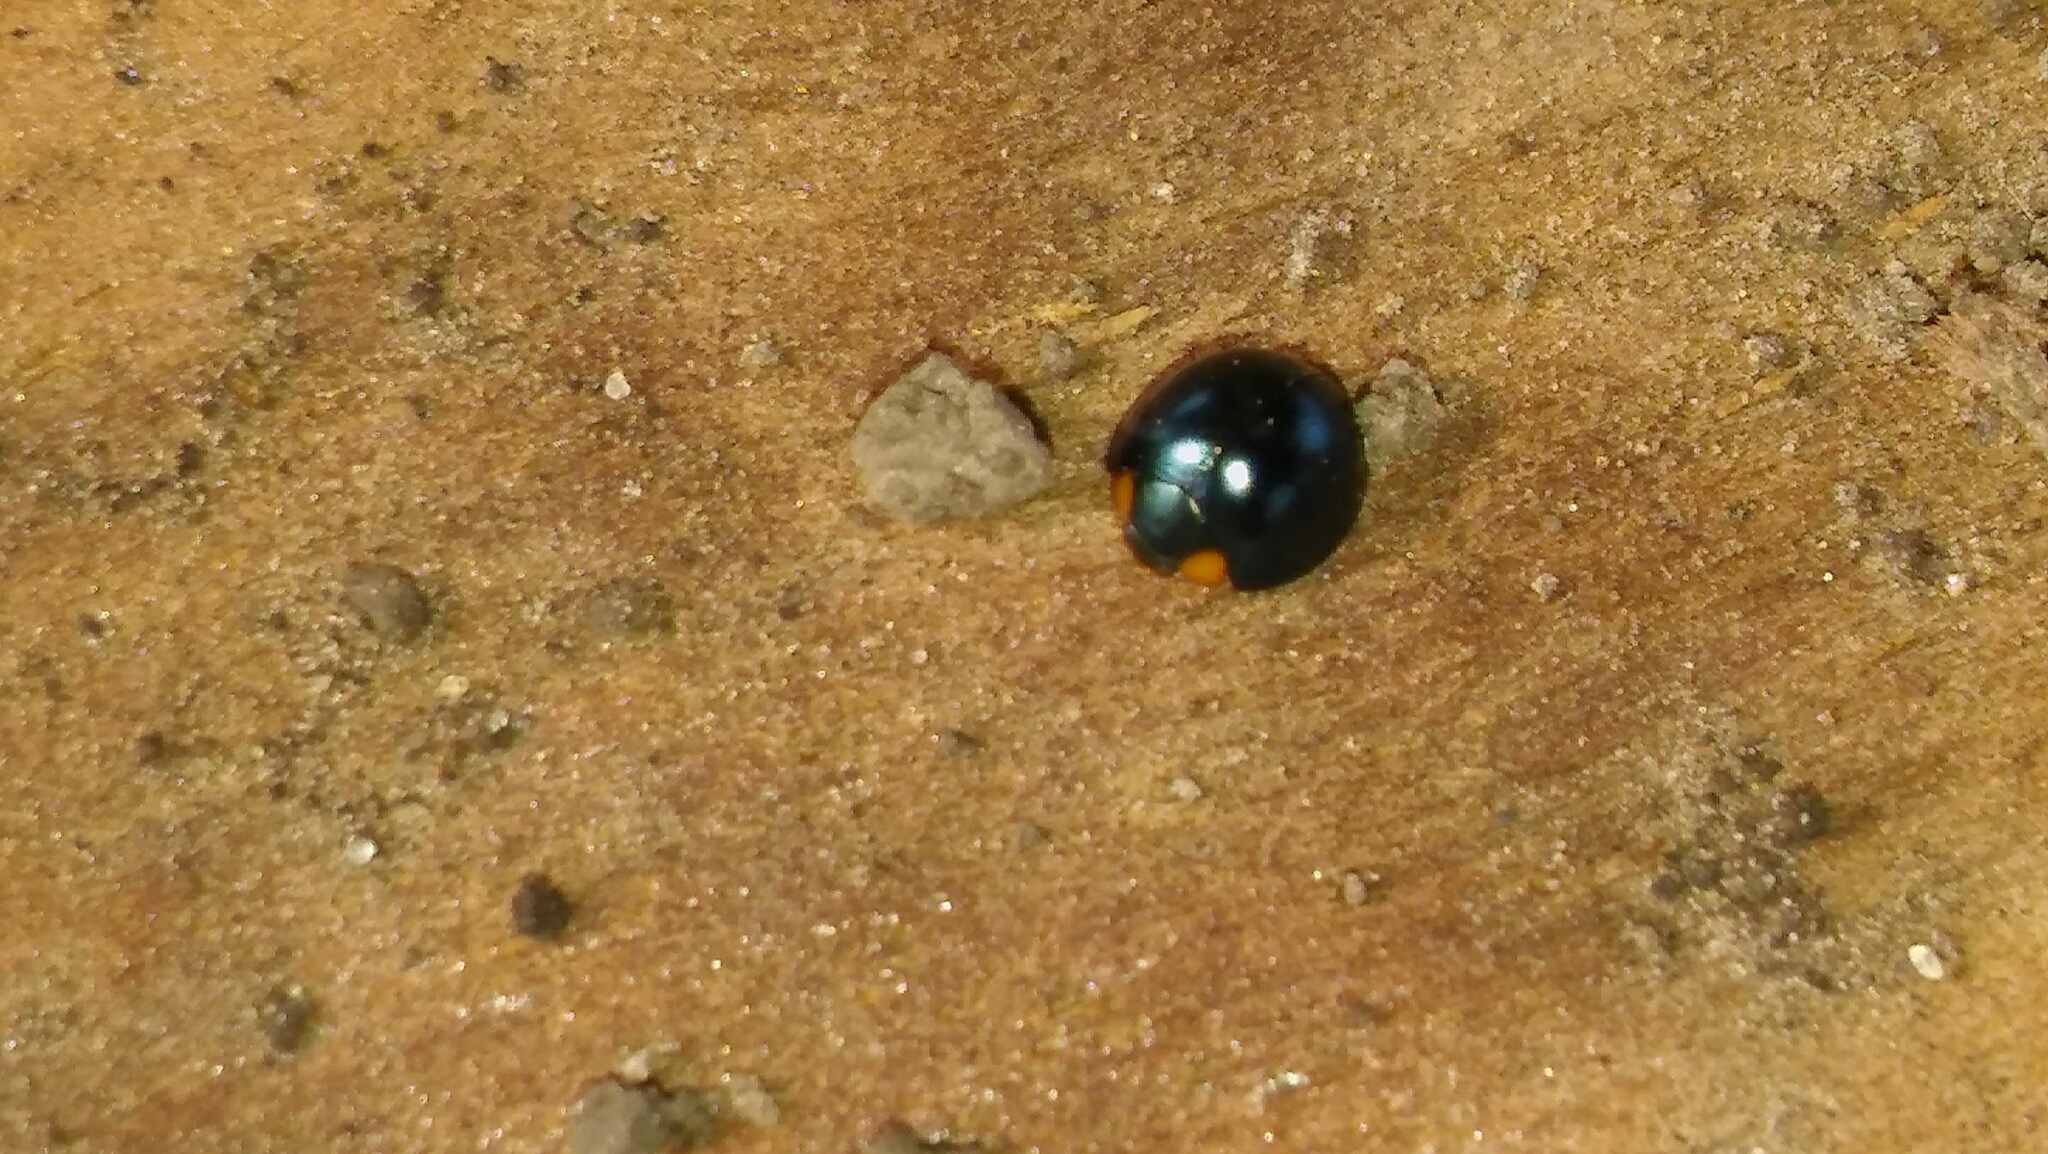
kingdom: Animalia
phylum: Arthropoda
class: Insecta
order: Coleoptera
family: Coccinellidae
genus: Curinus
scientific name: Curinus coeruleus
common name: Ladybird beetle
